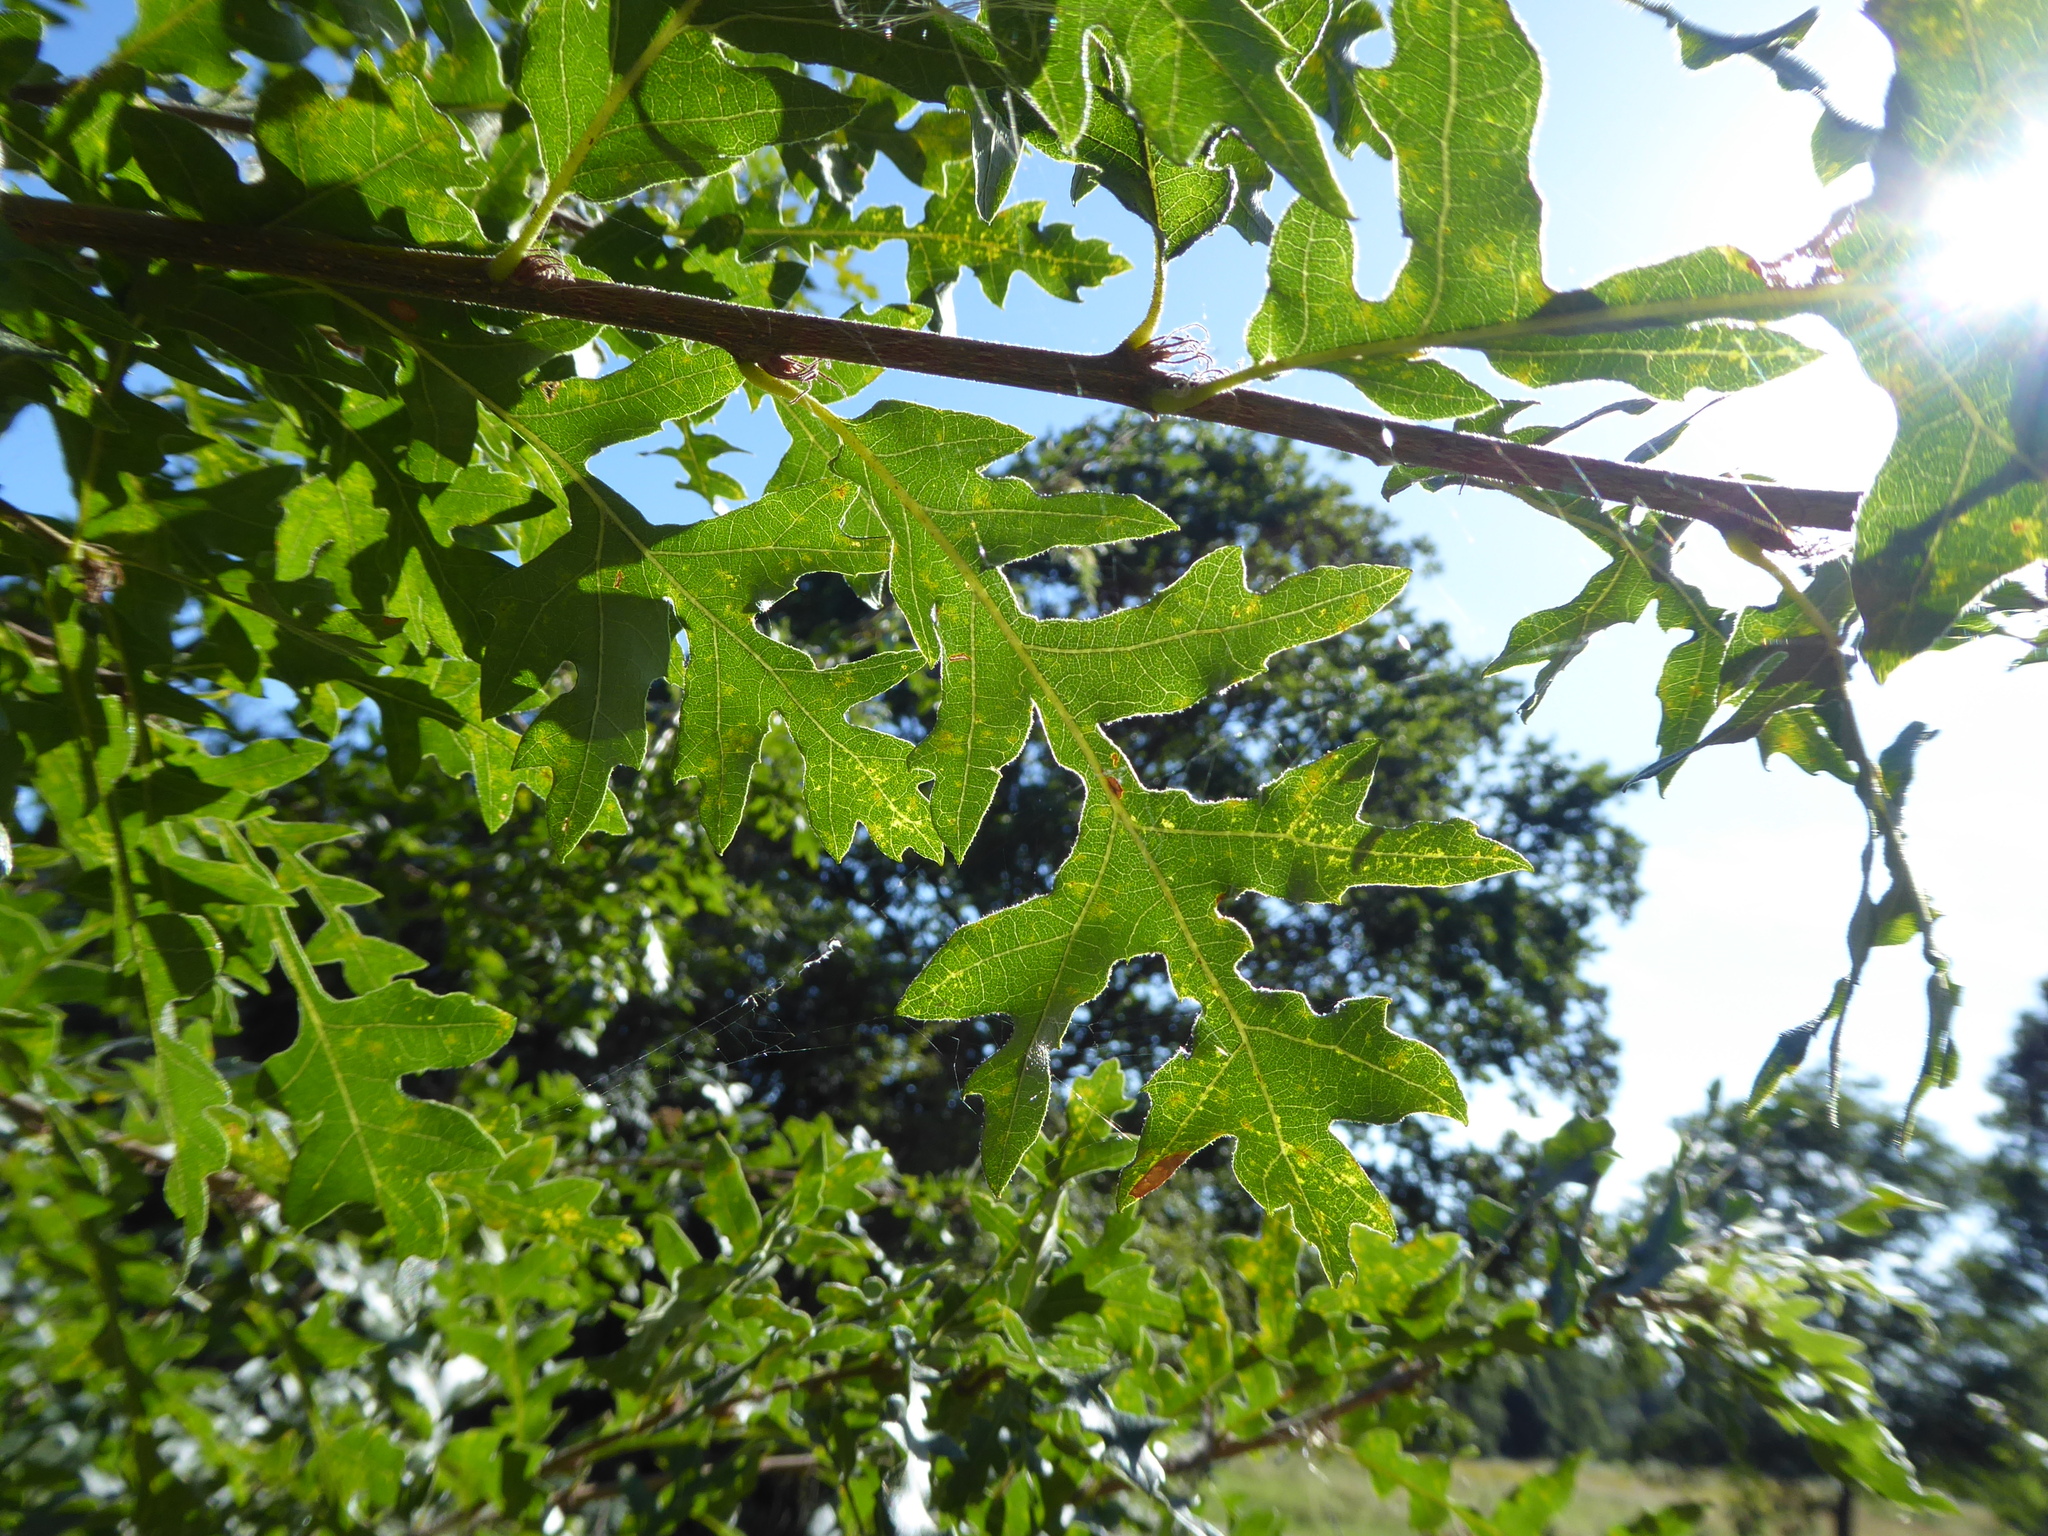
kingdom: Plantae
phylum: Tracheophyta
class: Magnoliopsida
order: Fagales
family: Fagaceae
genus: Quercus
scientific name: Quercus cerris
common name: Turkey oak
